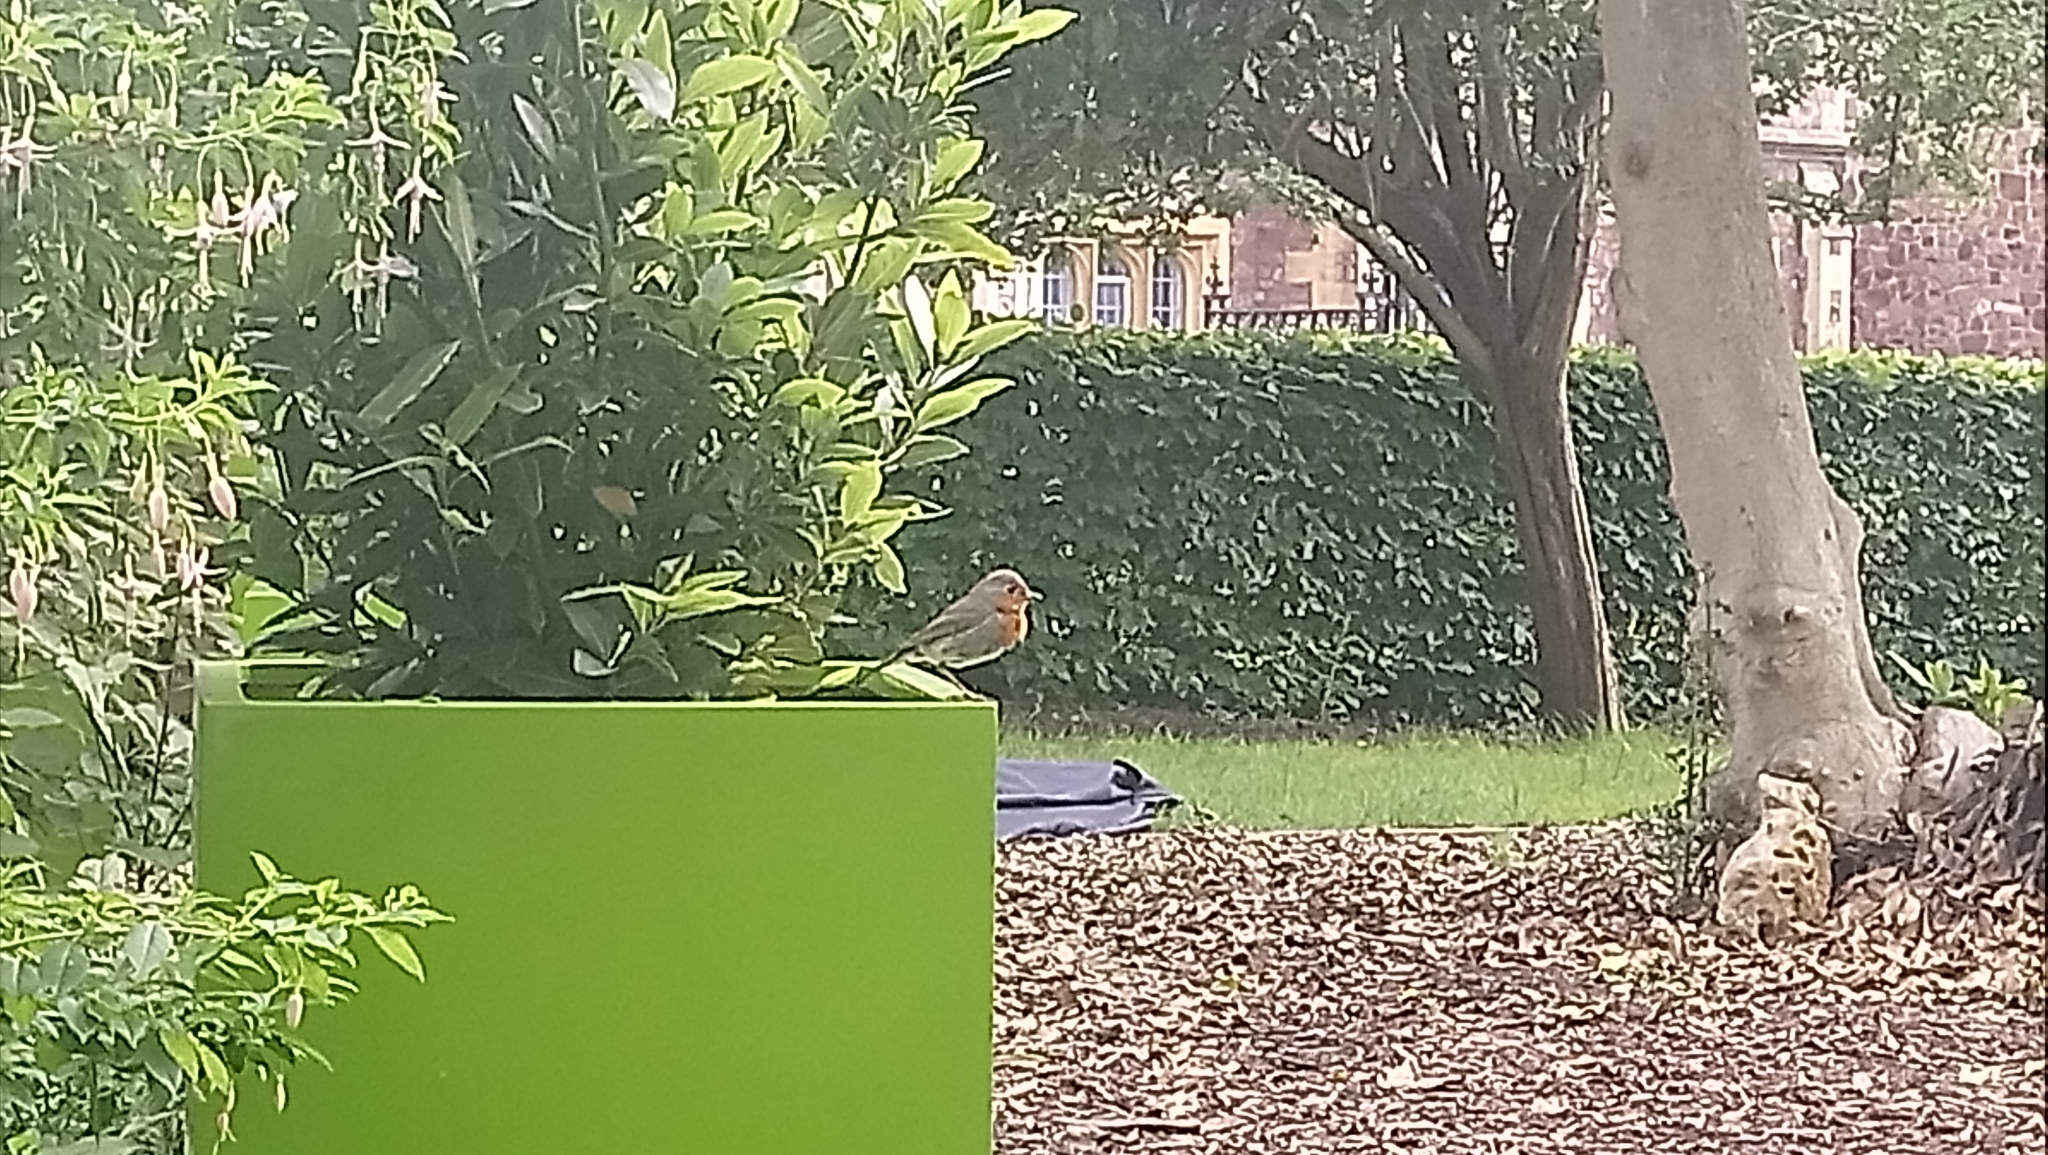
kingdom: Animalia
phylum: Chordata
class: Aves
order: Passeriformes
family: Muscicapidae
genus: Erithacus
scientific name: Erithacus rubecula
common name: European robin
